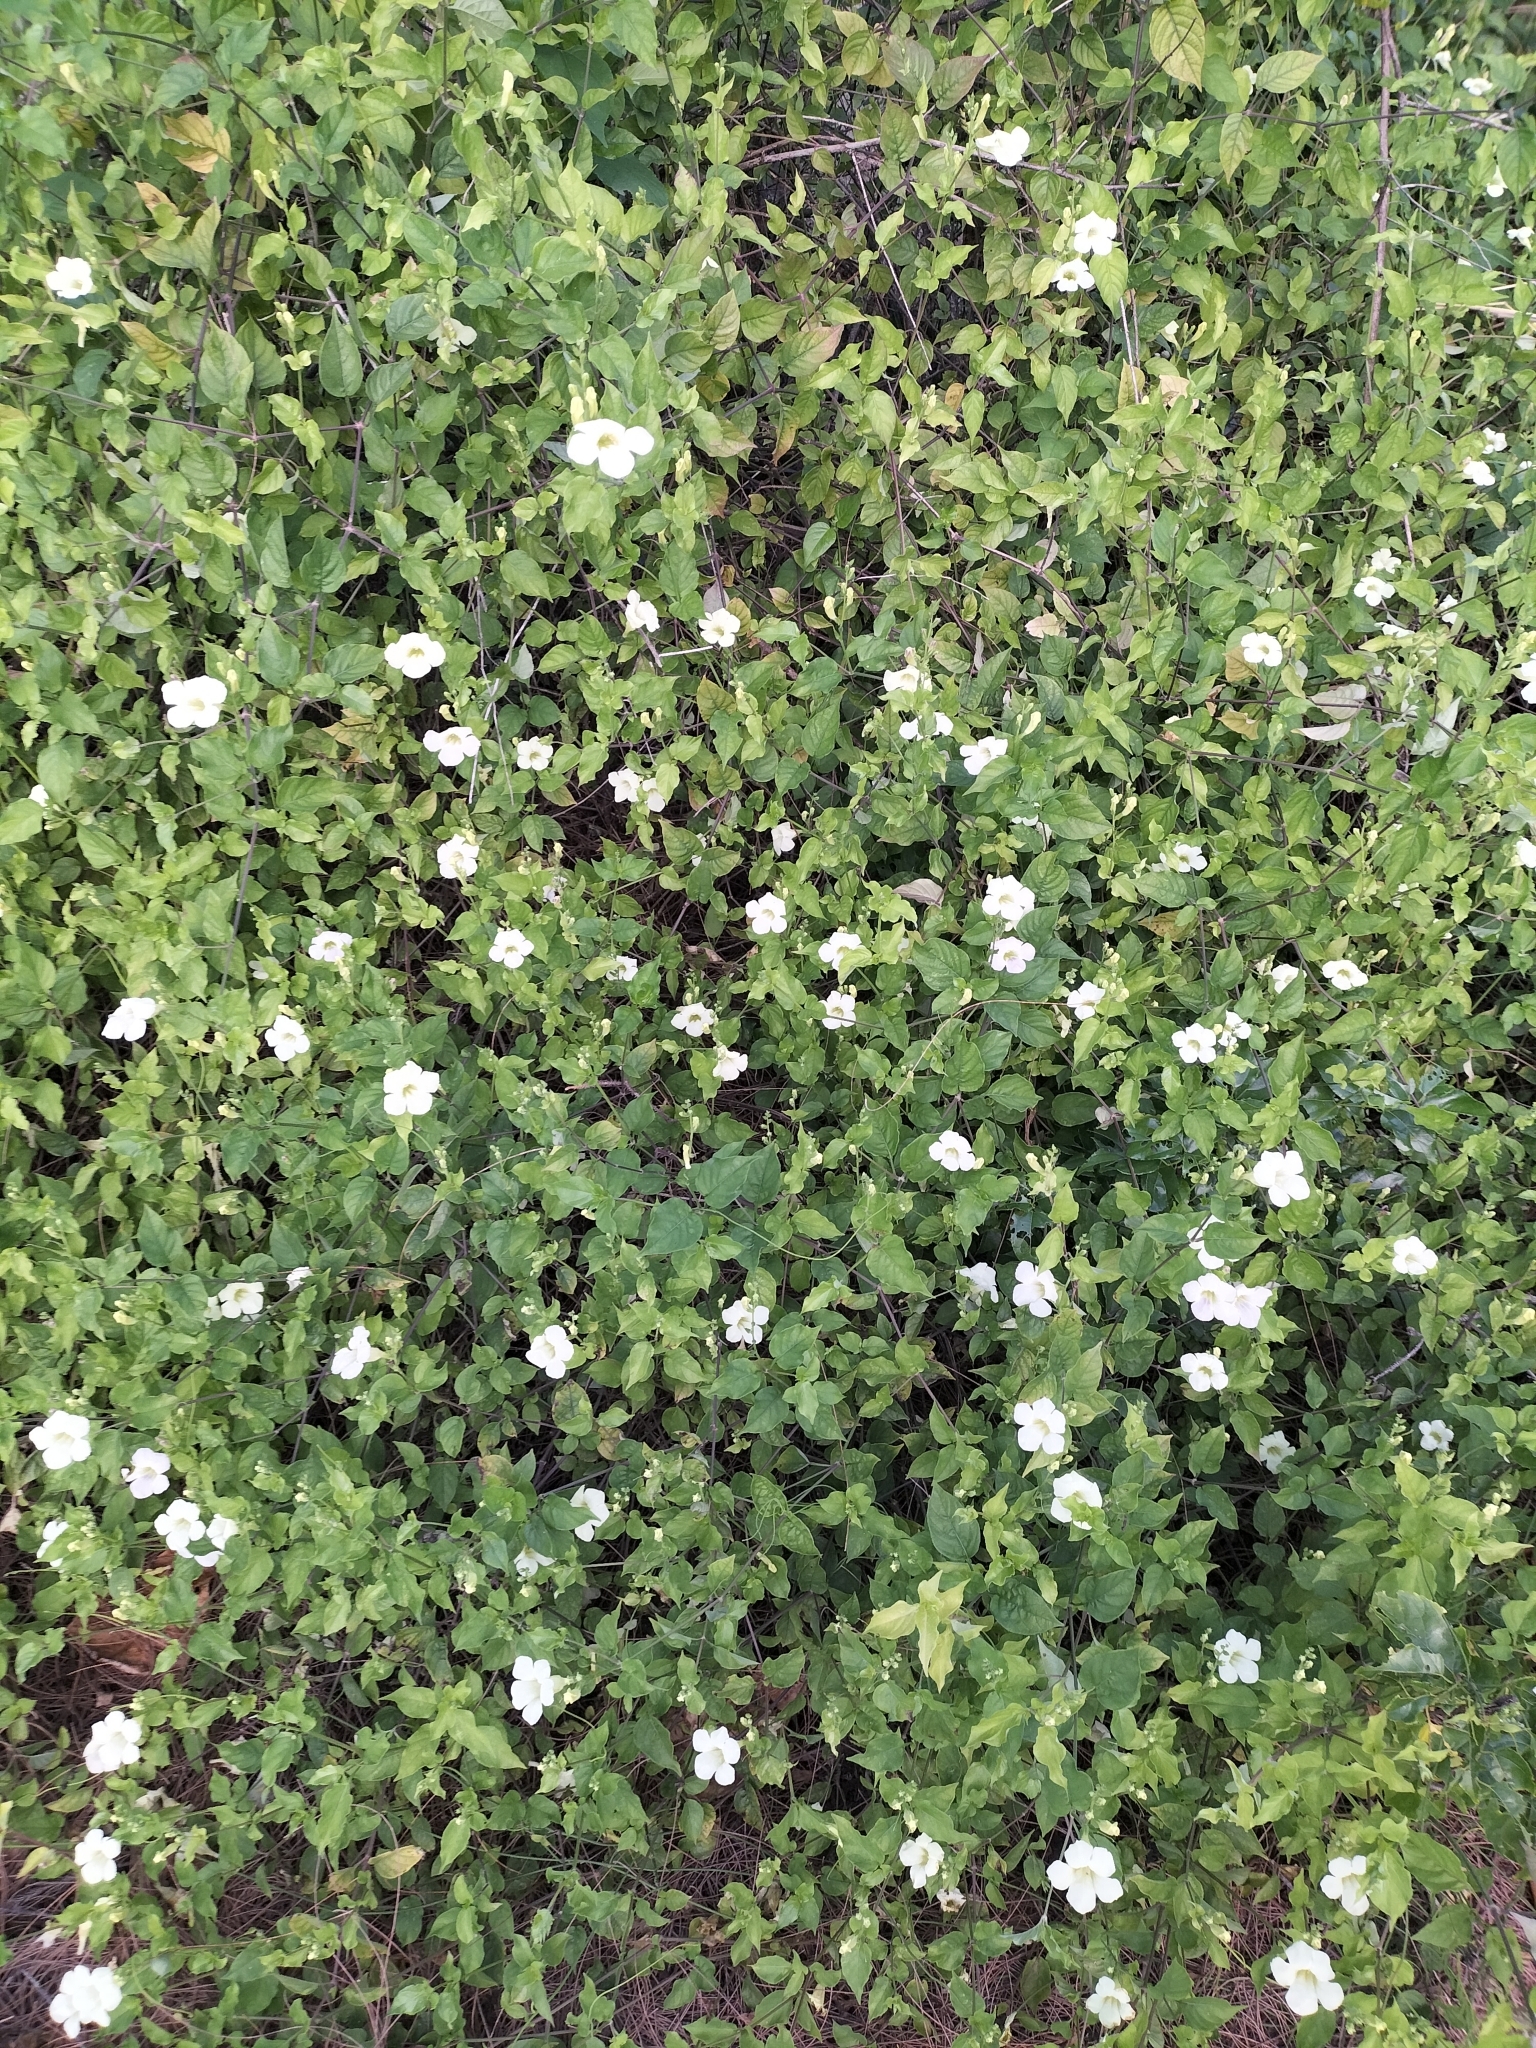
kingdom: Plantae
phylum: Tracheophyta
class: Magnoliopsida
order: Lamiales
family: Acanthaceae
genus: Asystasia
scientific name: Asystasia gangetica
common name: Chinese violet
